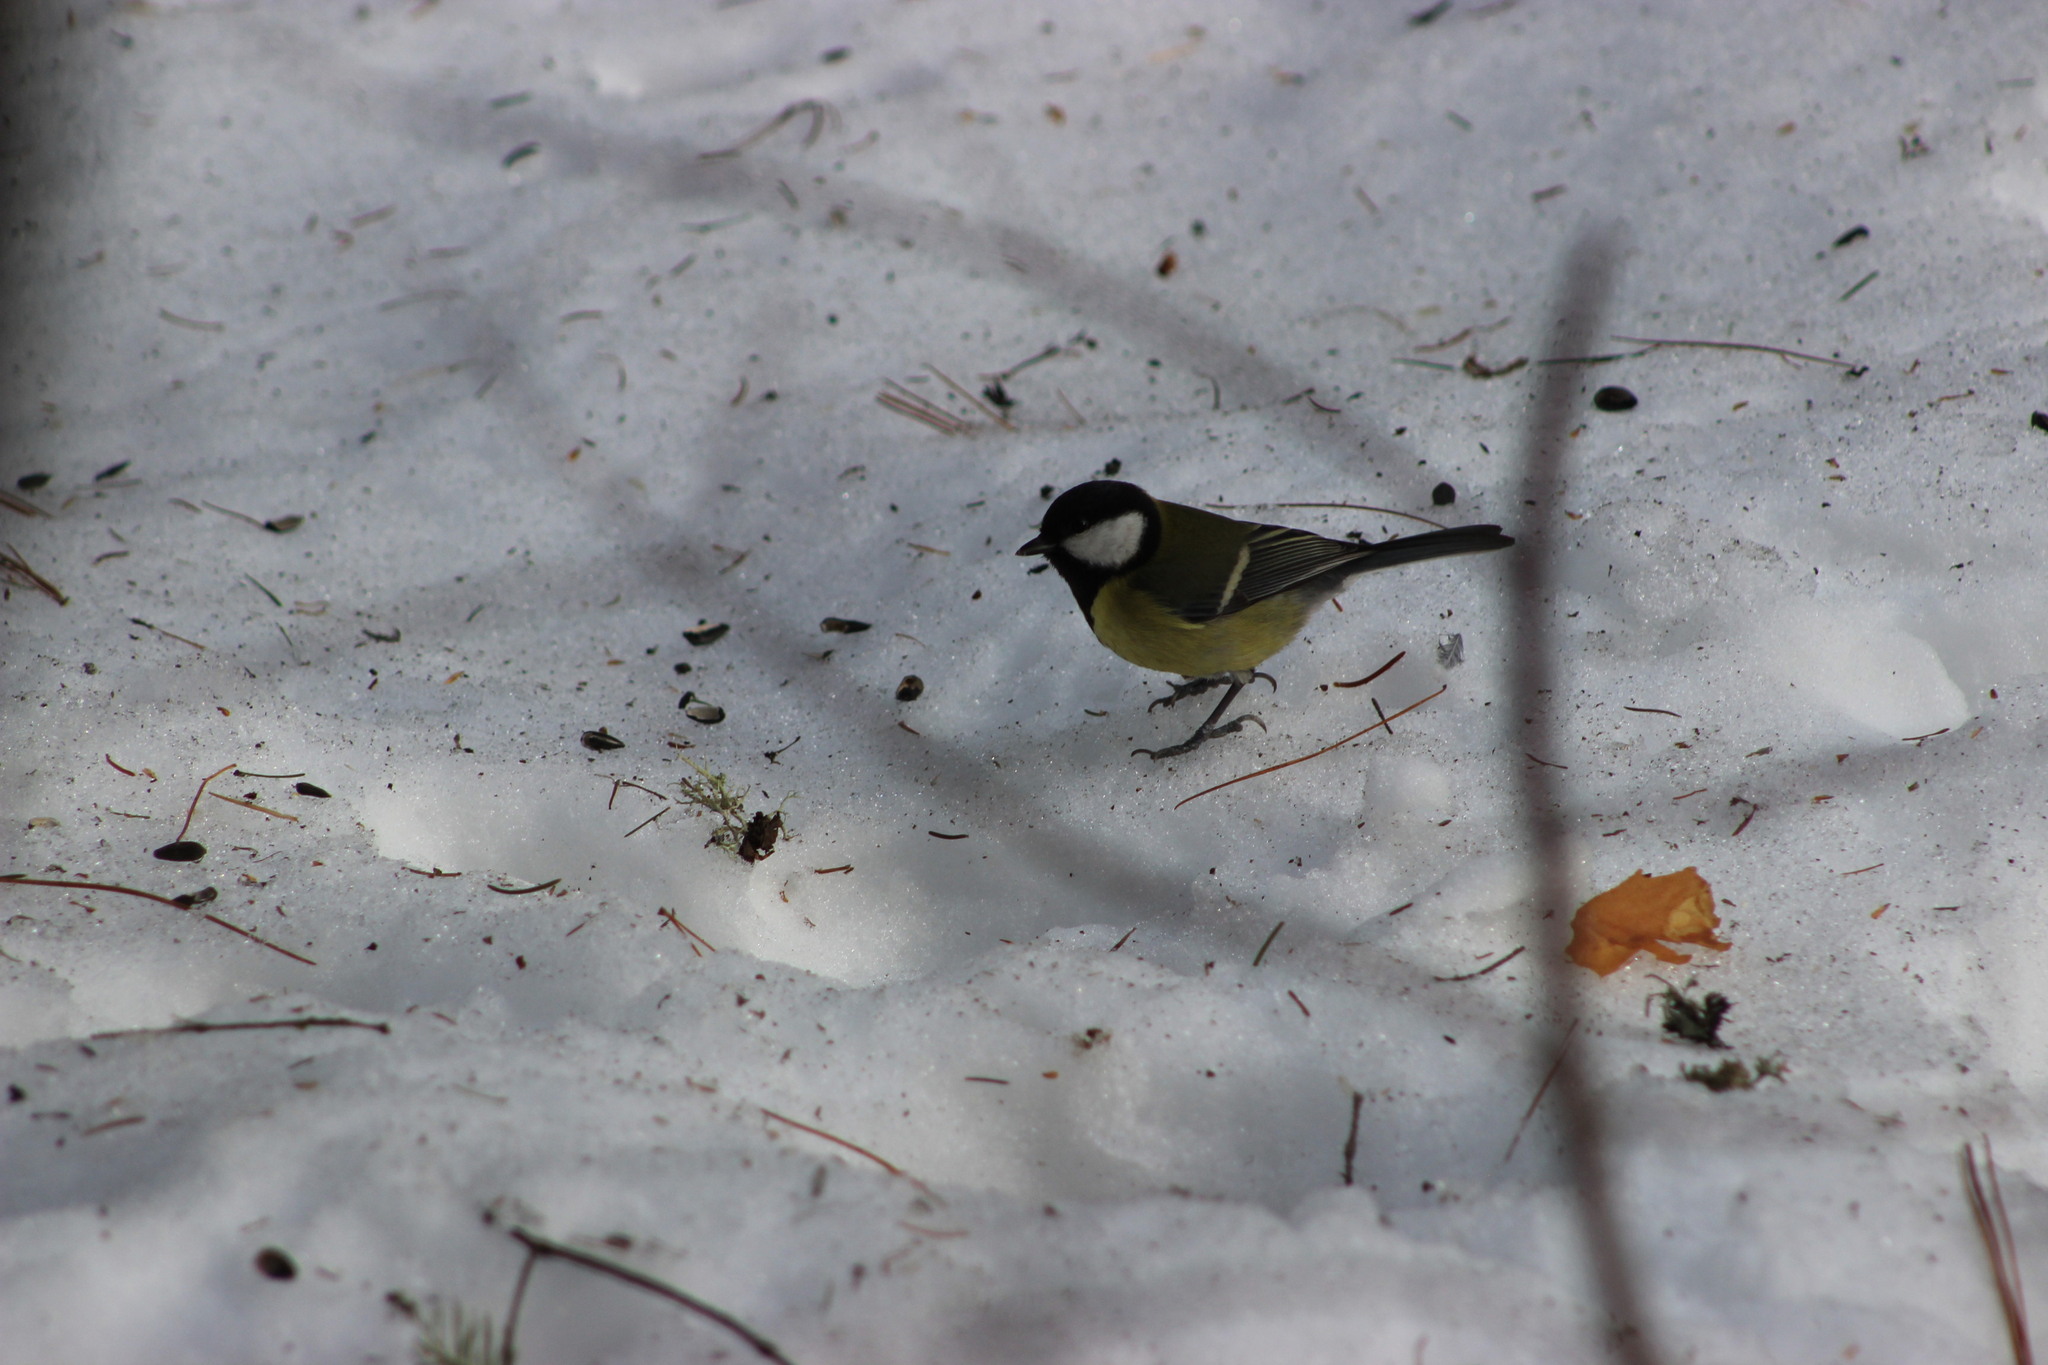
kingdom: Animalia
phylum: Chordata
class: Aves
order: Passeriformes
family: Paridae
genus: Parus
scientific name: Parus major
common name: Great tit
